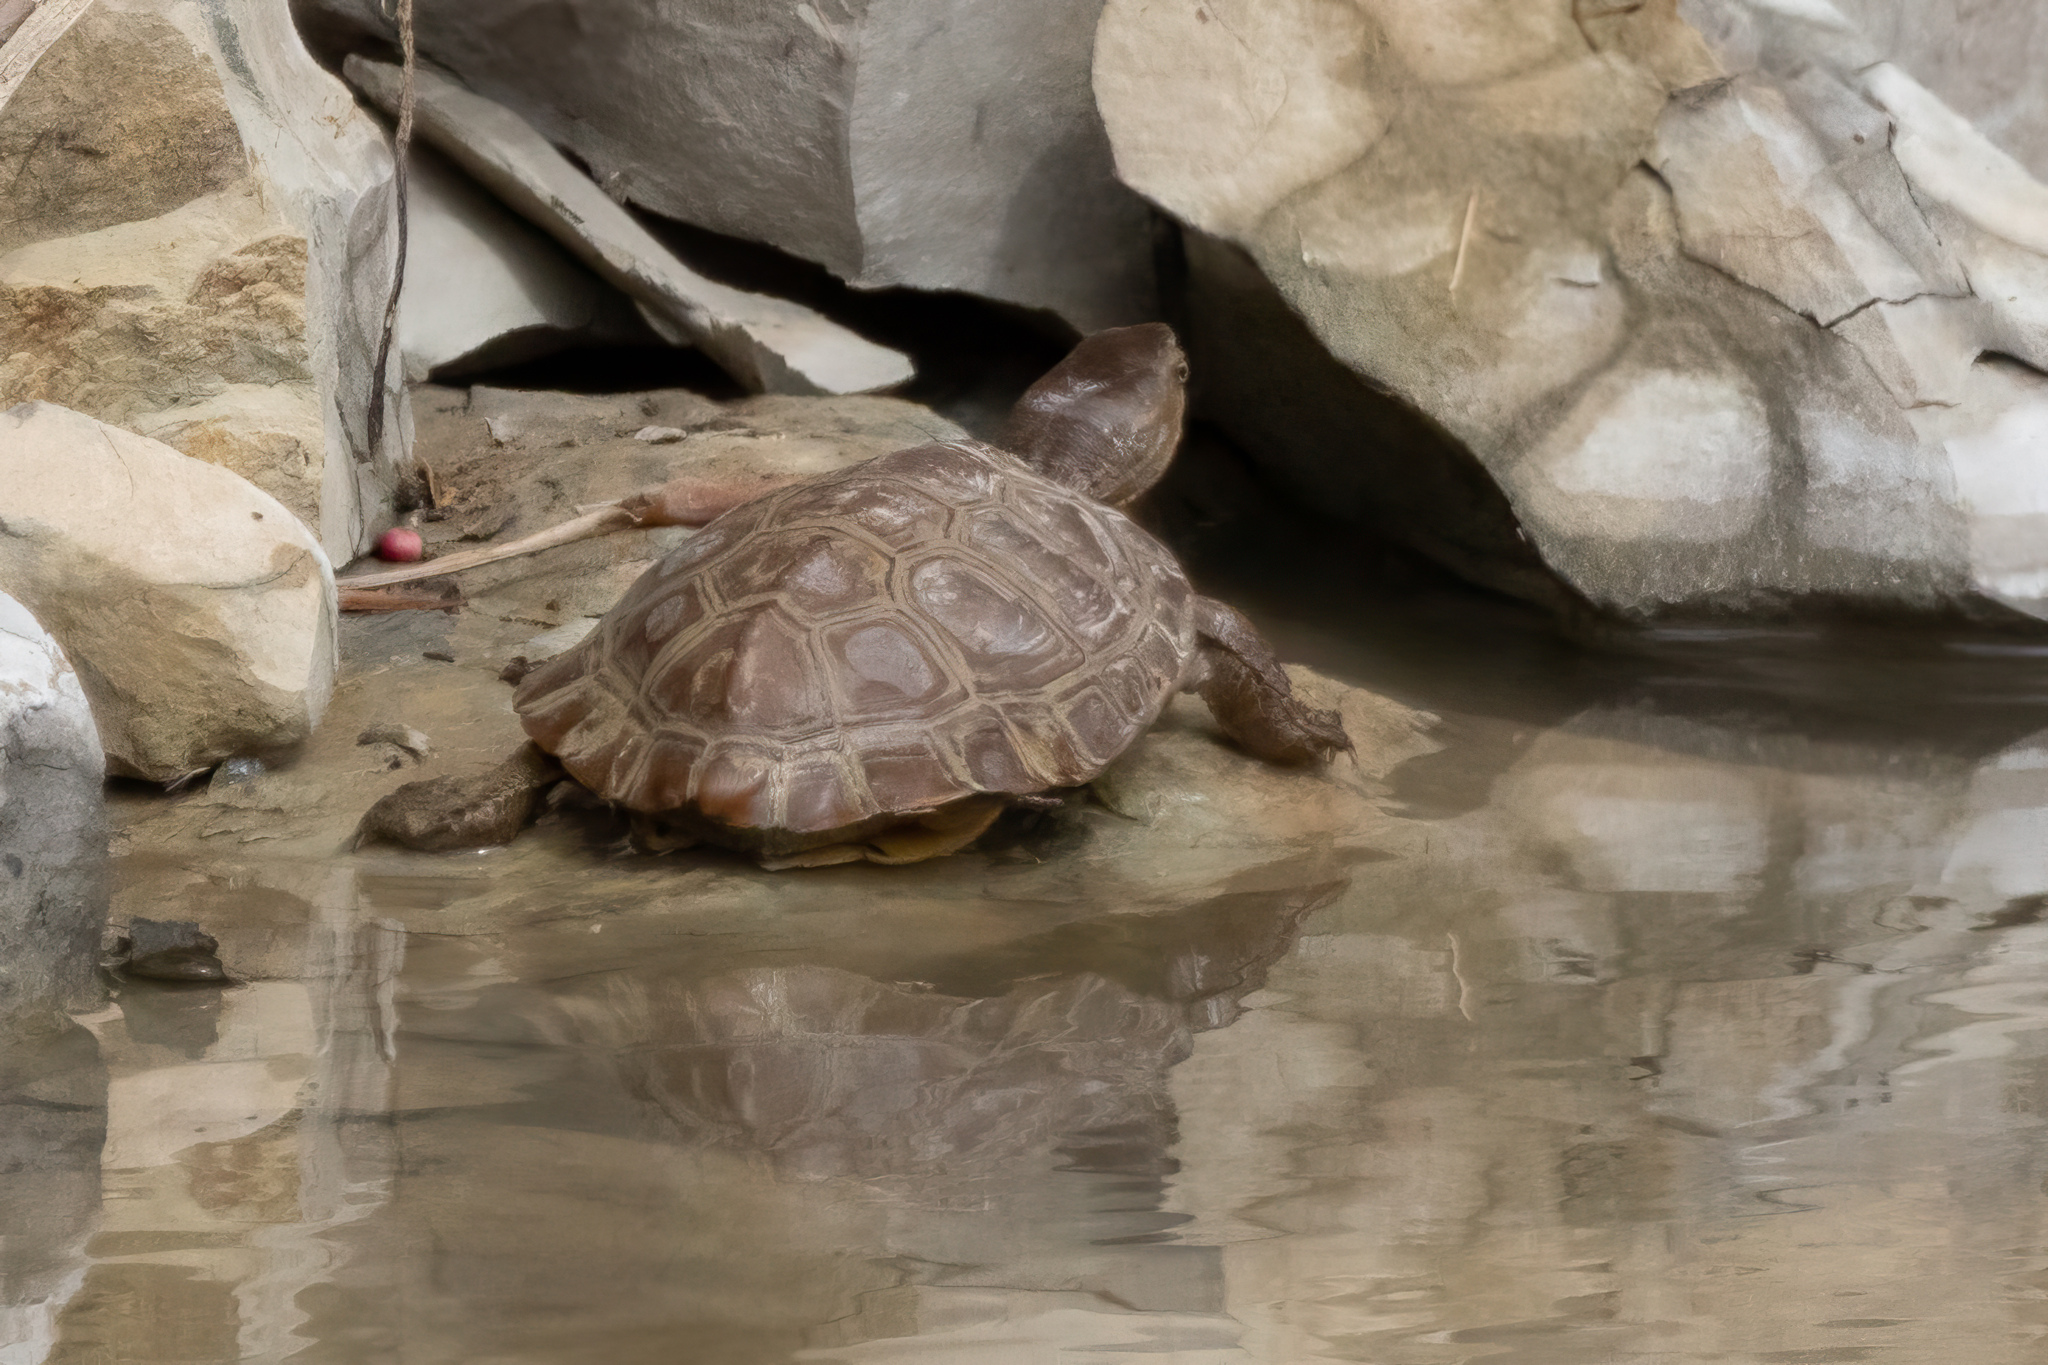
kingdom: Animalia
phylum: Chordata
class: Testudines
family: Geoemydidae
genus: Mauremys
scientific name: Mauremys leprosa
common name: Mediterranean pond turtle
